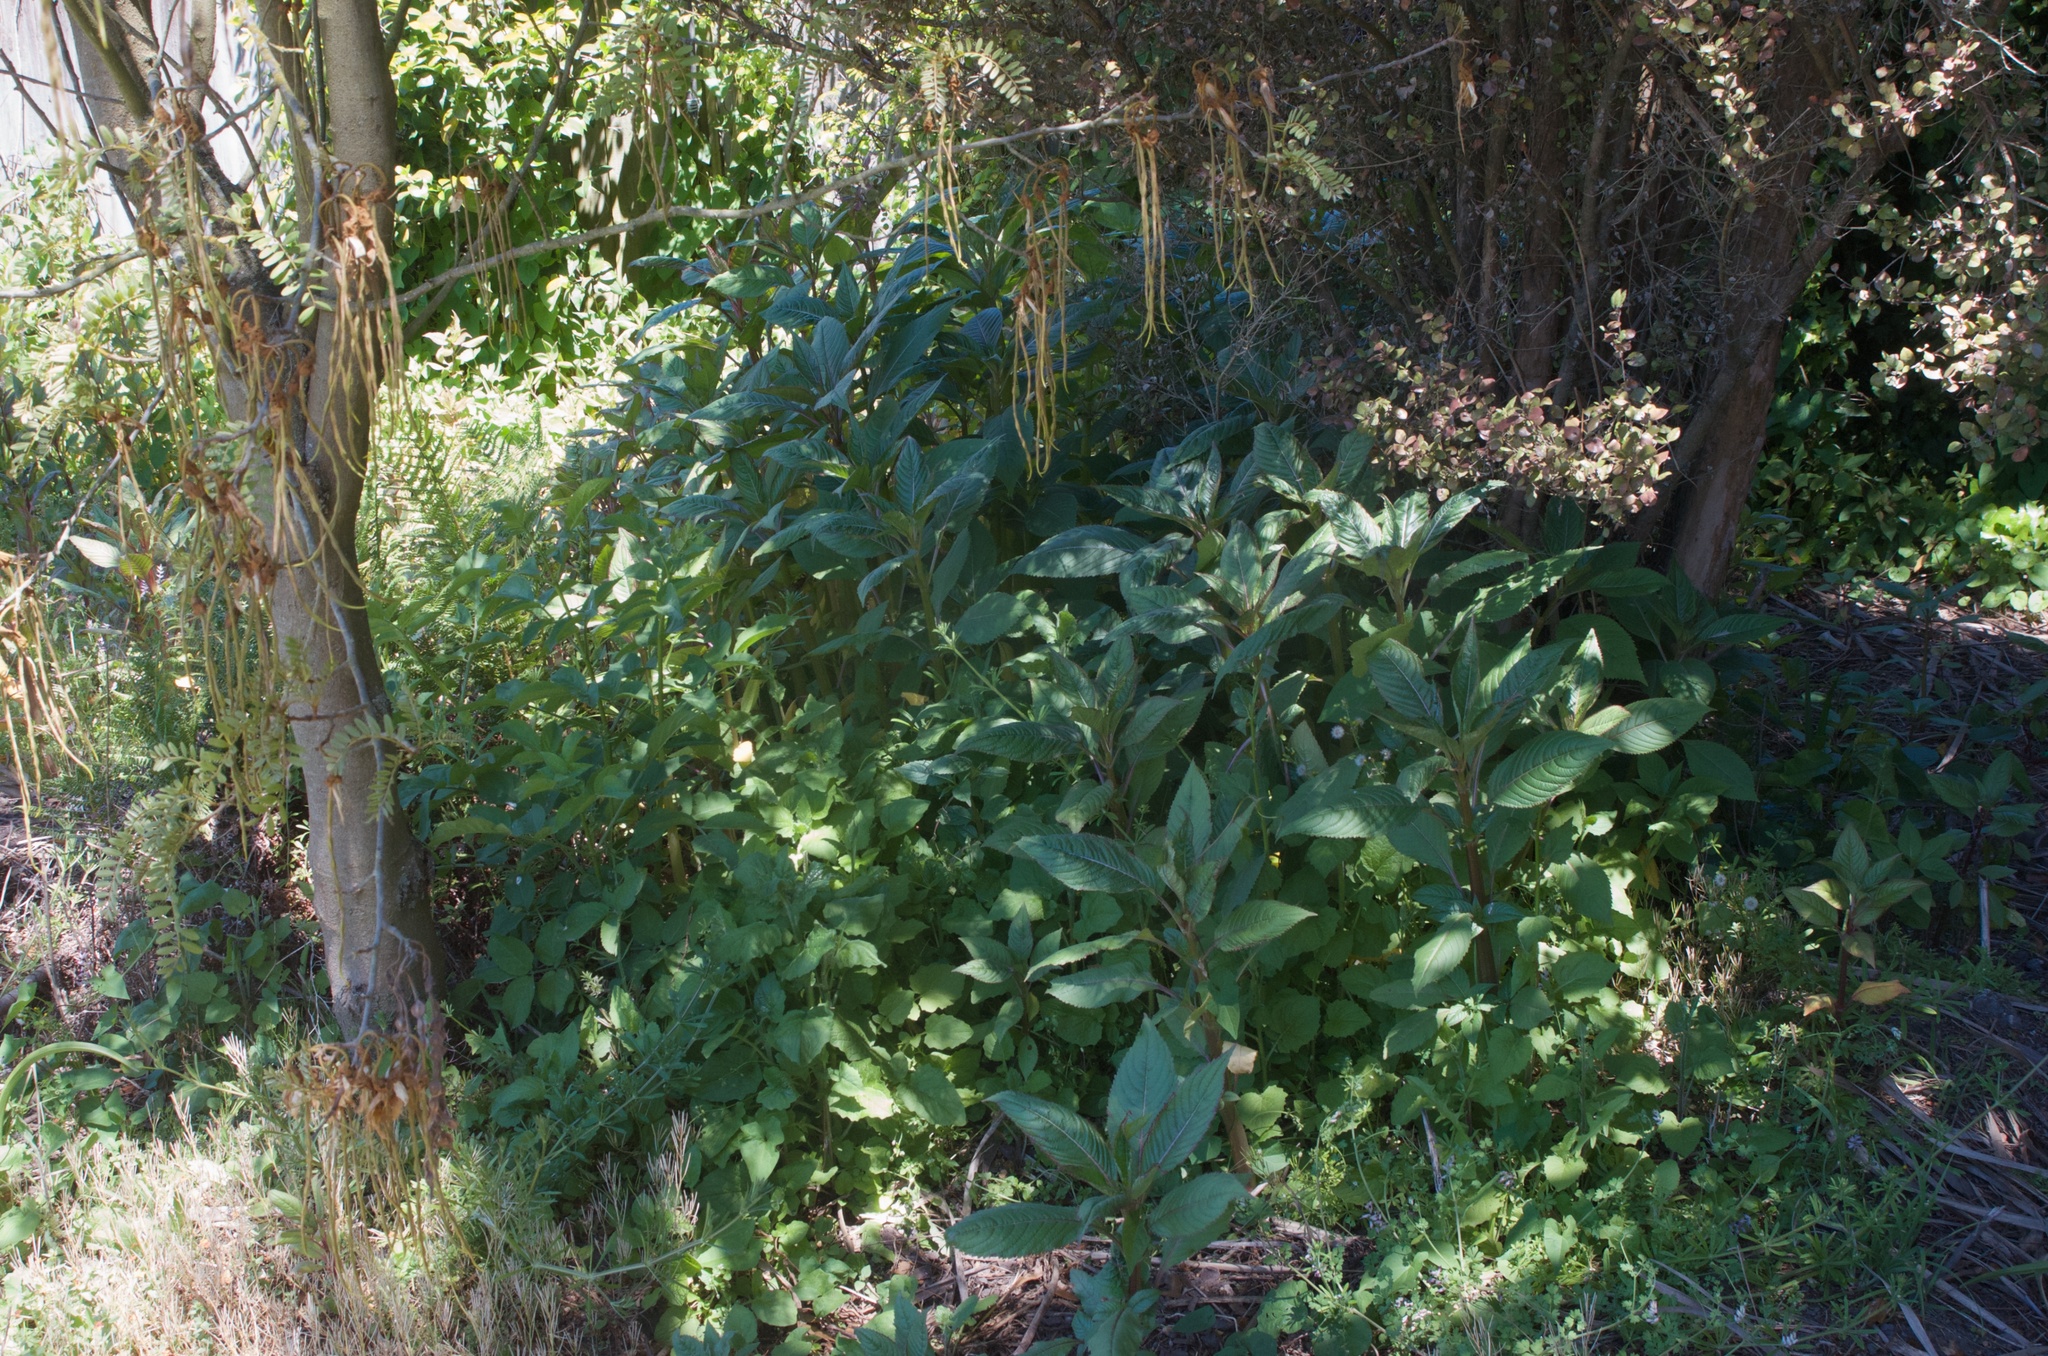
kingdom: Plantae
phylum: Tracheophyta
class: Magnoliopsida
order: Ericales
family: Balsaminaceae
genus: Impatiens
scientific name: Impatiens glandulifera
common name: Himalayan balsam
